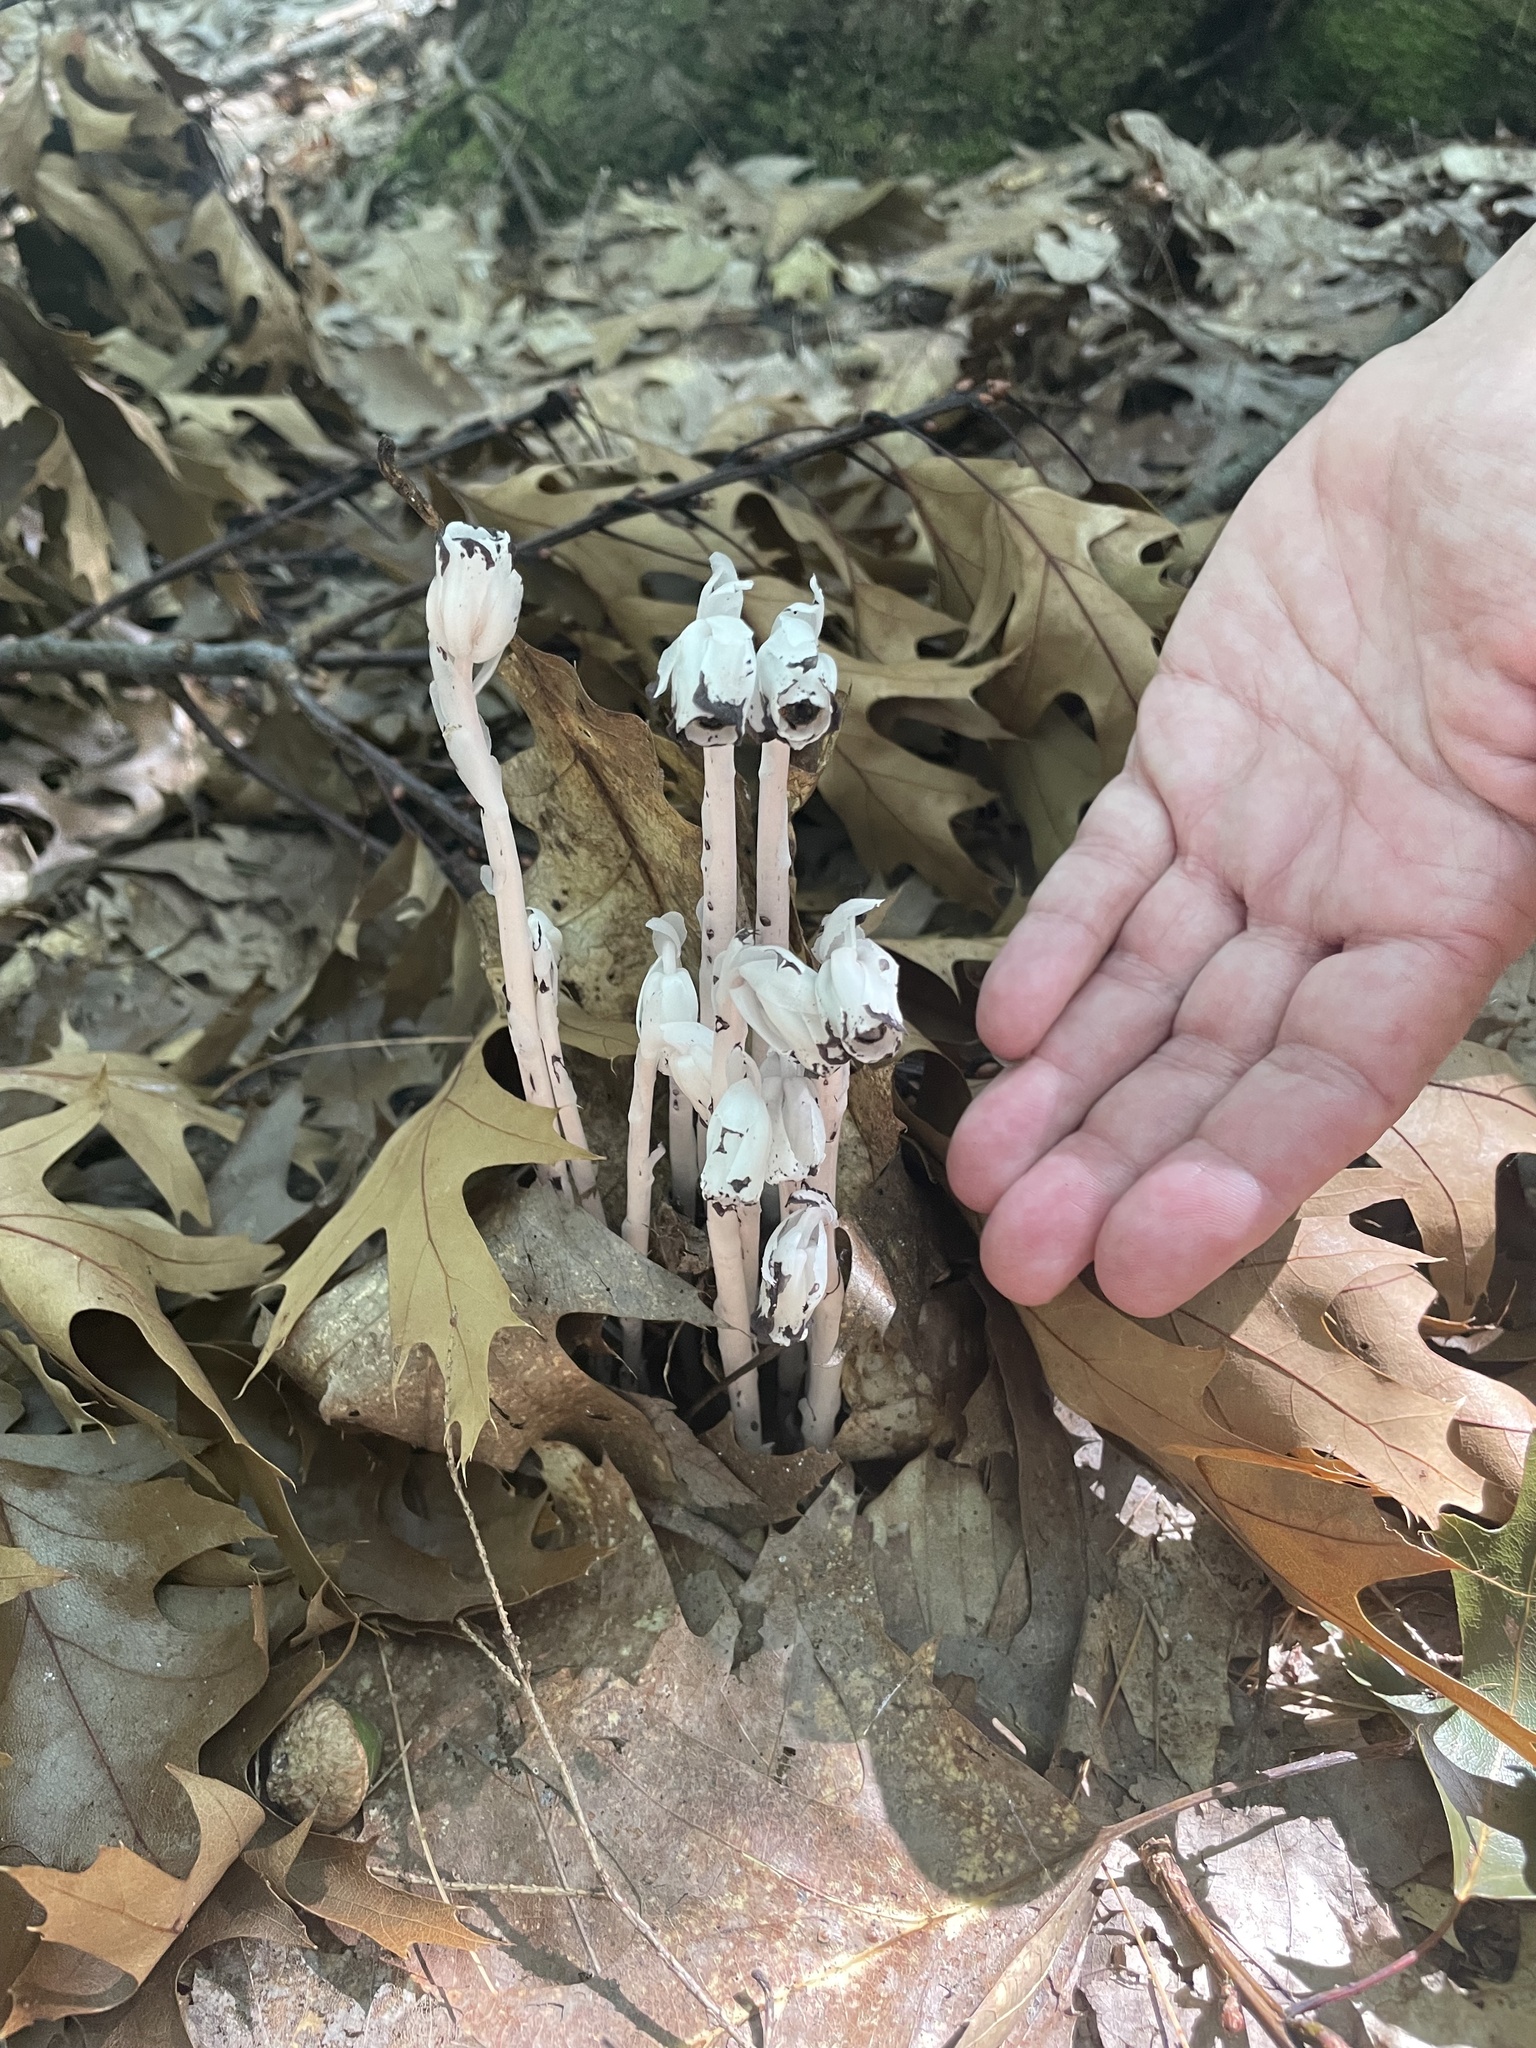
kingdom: Plantae
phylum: Tracheophyta
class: Magnoliopsida
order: Ericales
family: Ericaceae
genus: Monotropa
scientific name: Monotropa uniflora
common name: Convulsion root
